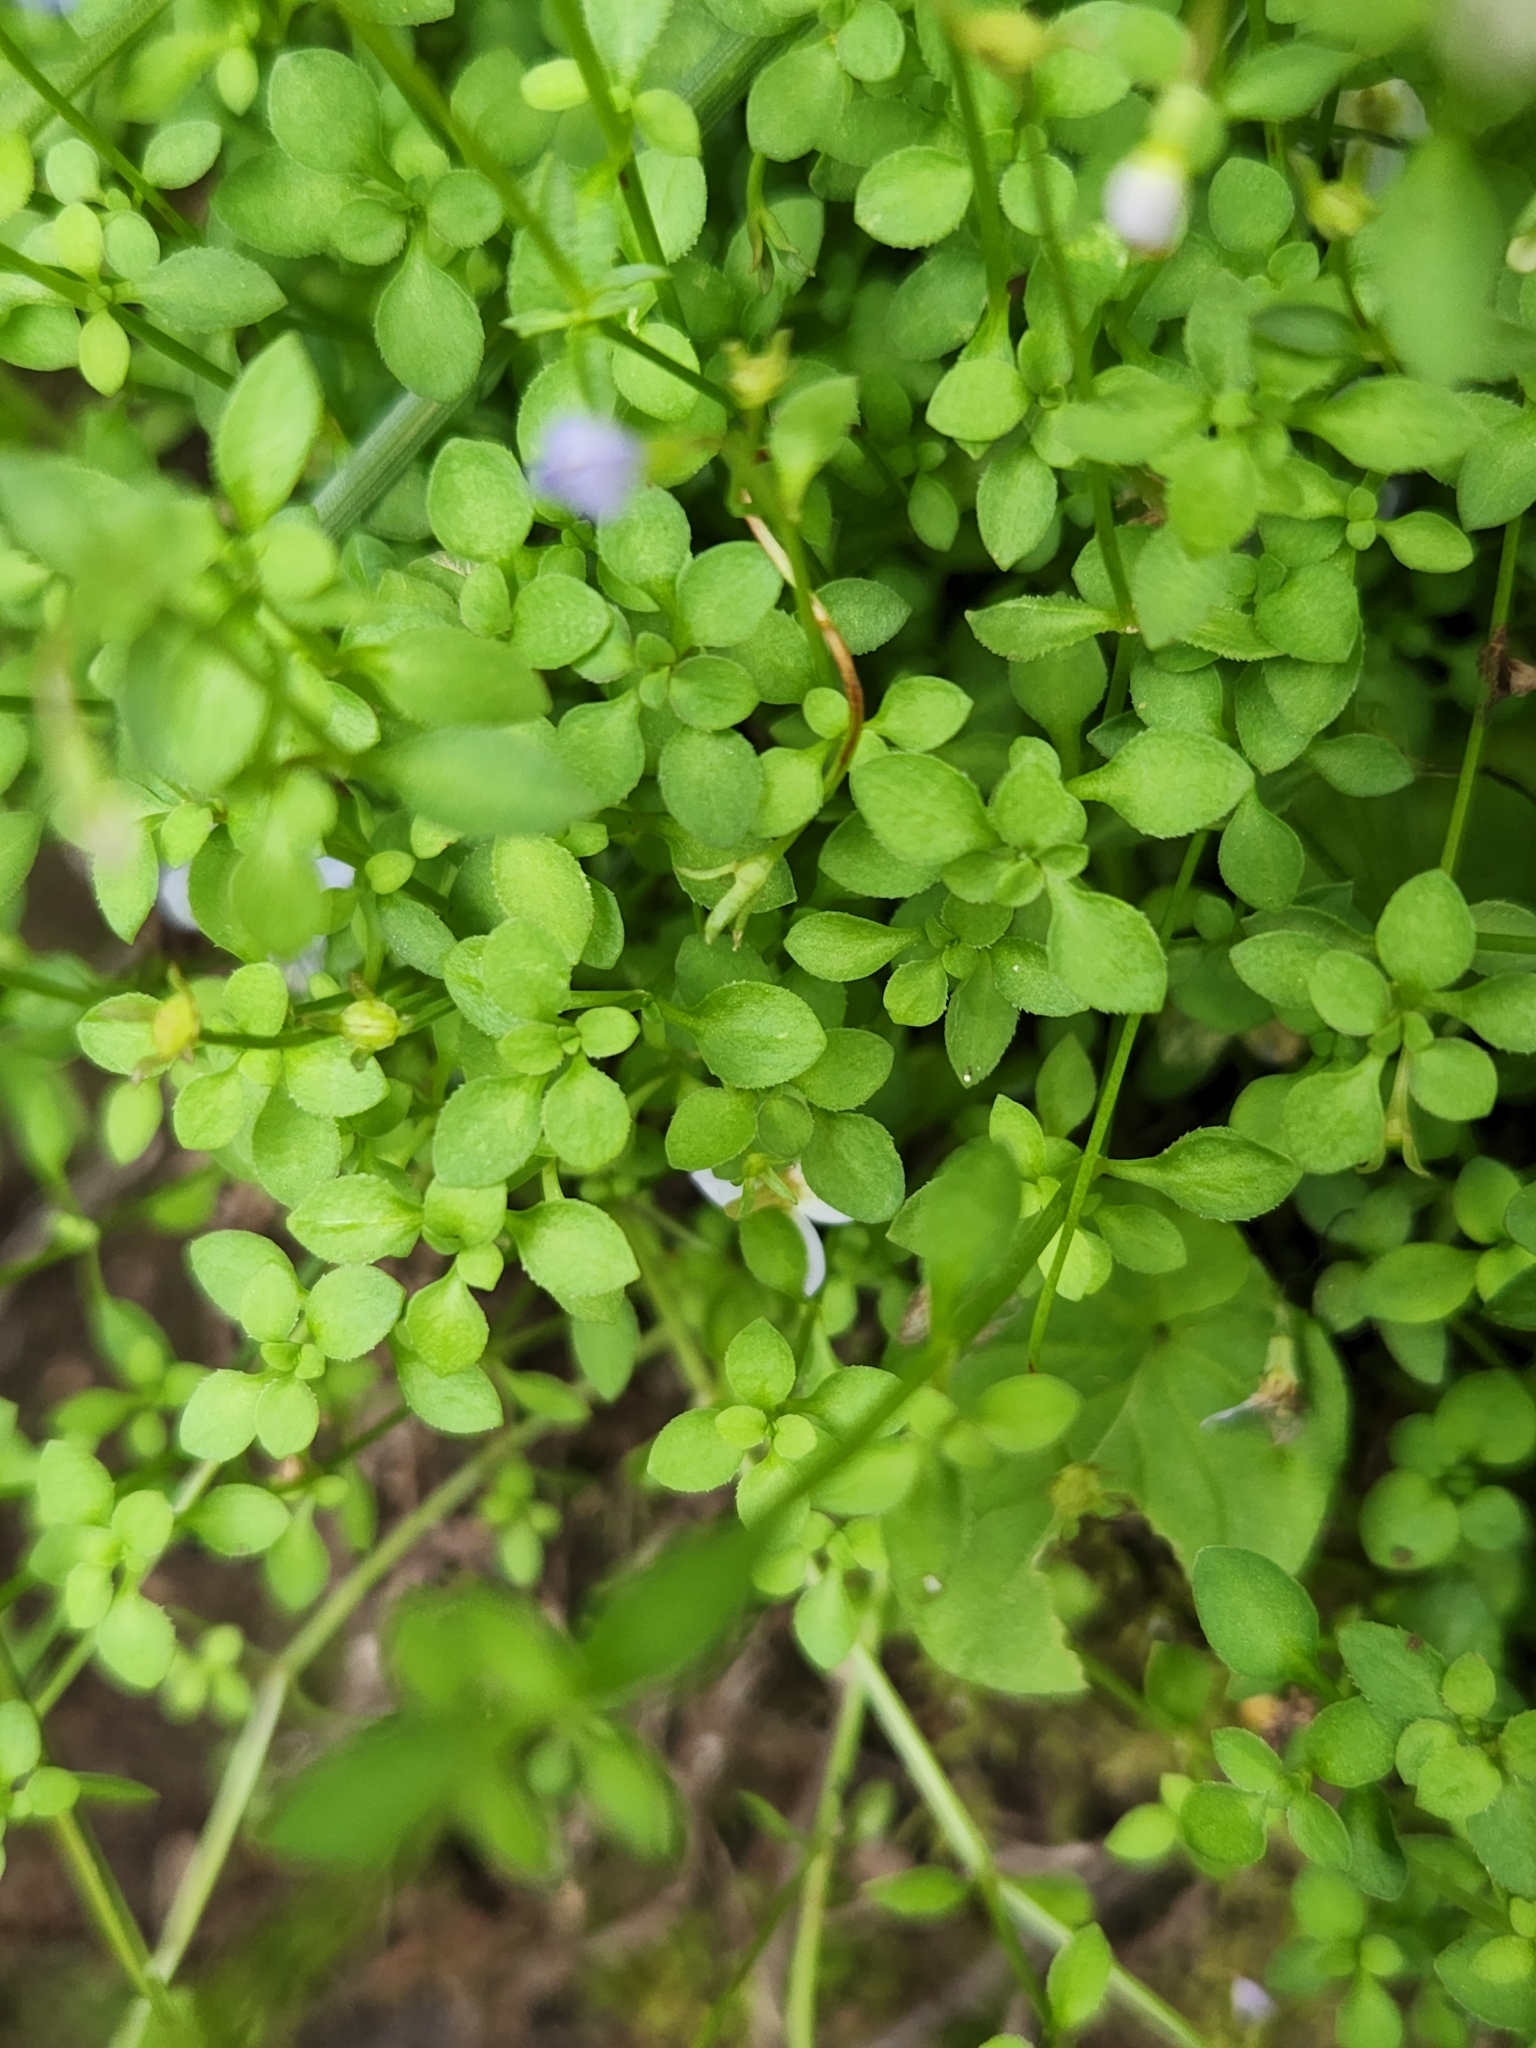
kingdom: Plantae
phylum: Tracheophyta
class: Magnoliopsida
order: Gentianales
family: Rubiaceae
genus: Houstonia
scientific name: Houstonia serpyllifolia
